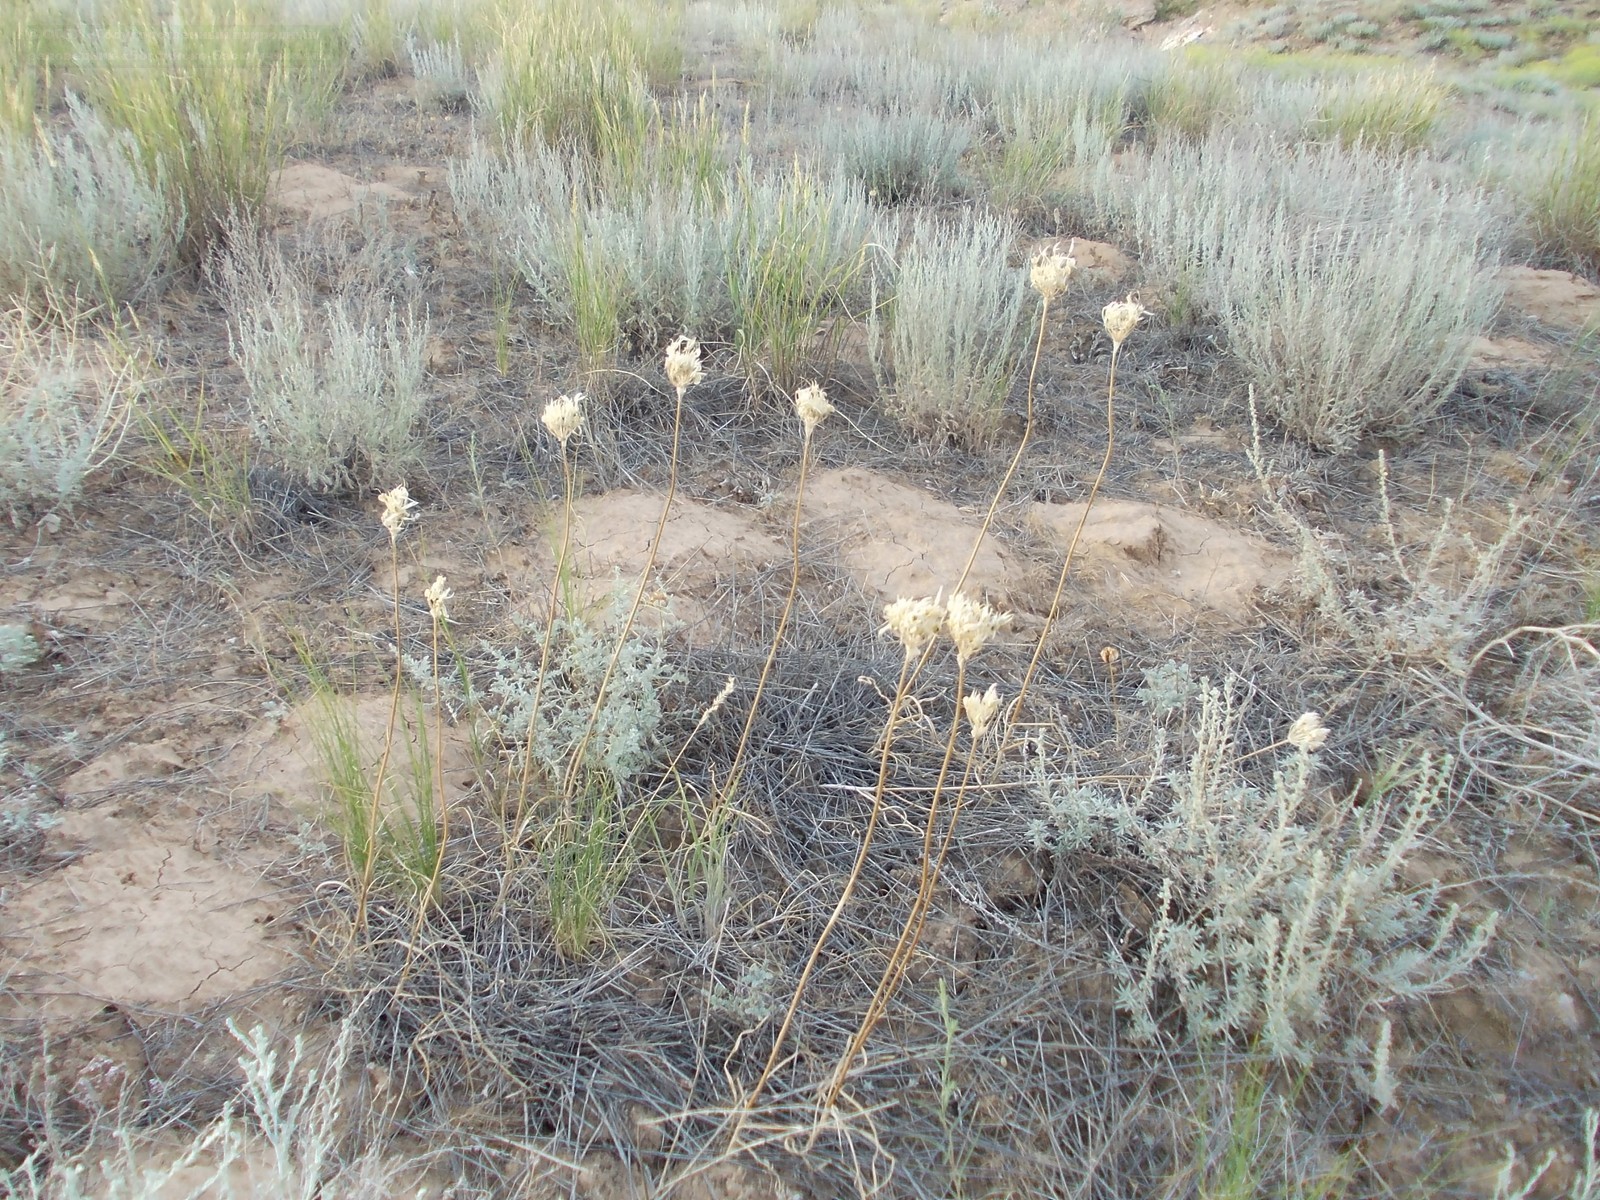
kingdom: Plantae
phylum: Tracheophyta
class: Liliopsida
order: Asparagales
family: Amaryllidaceae
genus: Allium
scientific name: Allium inderiense
